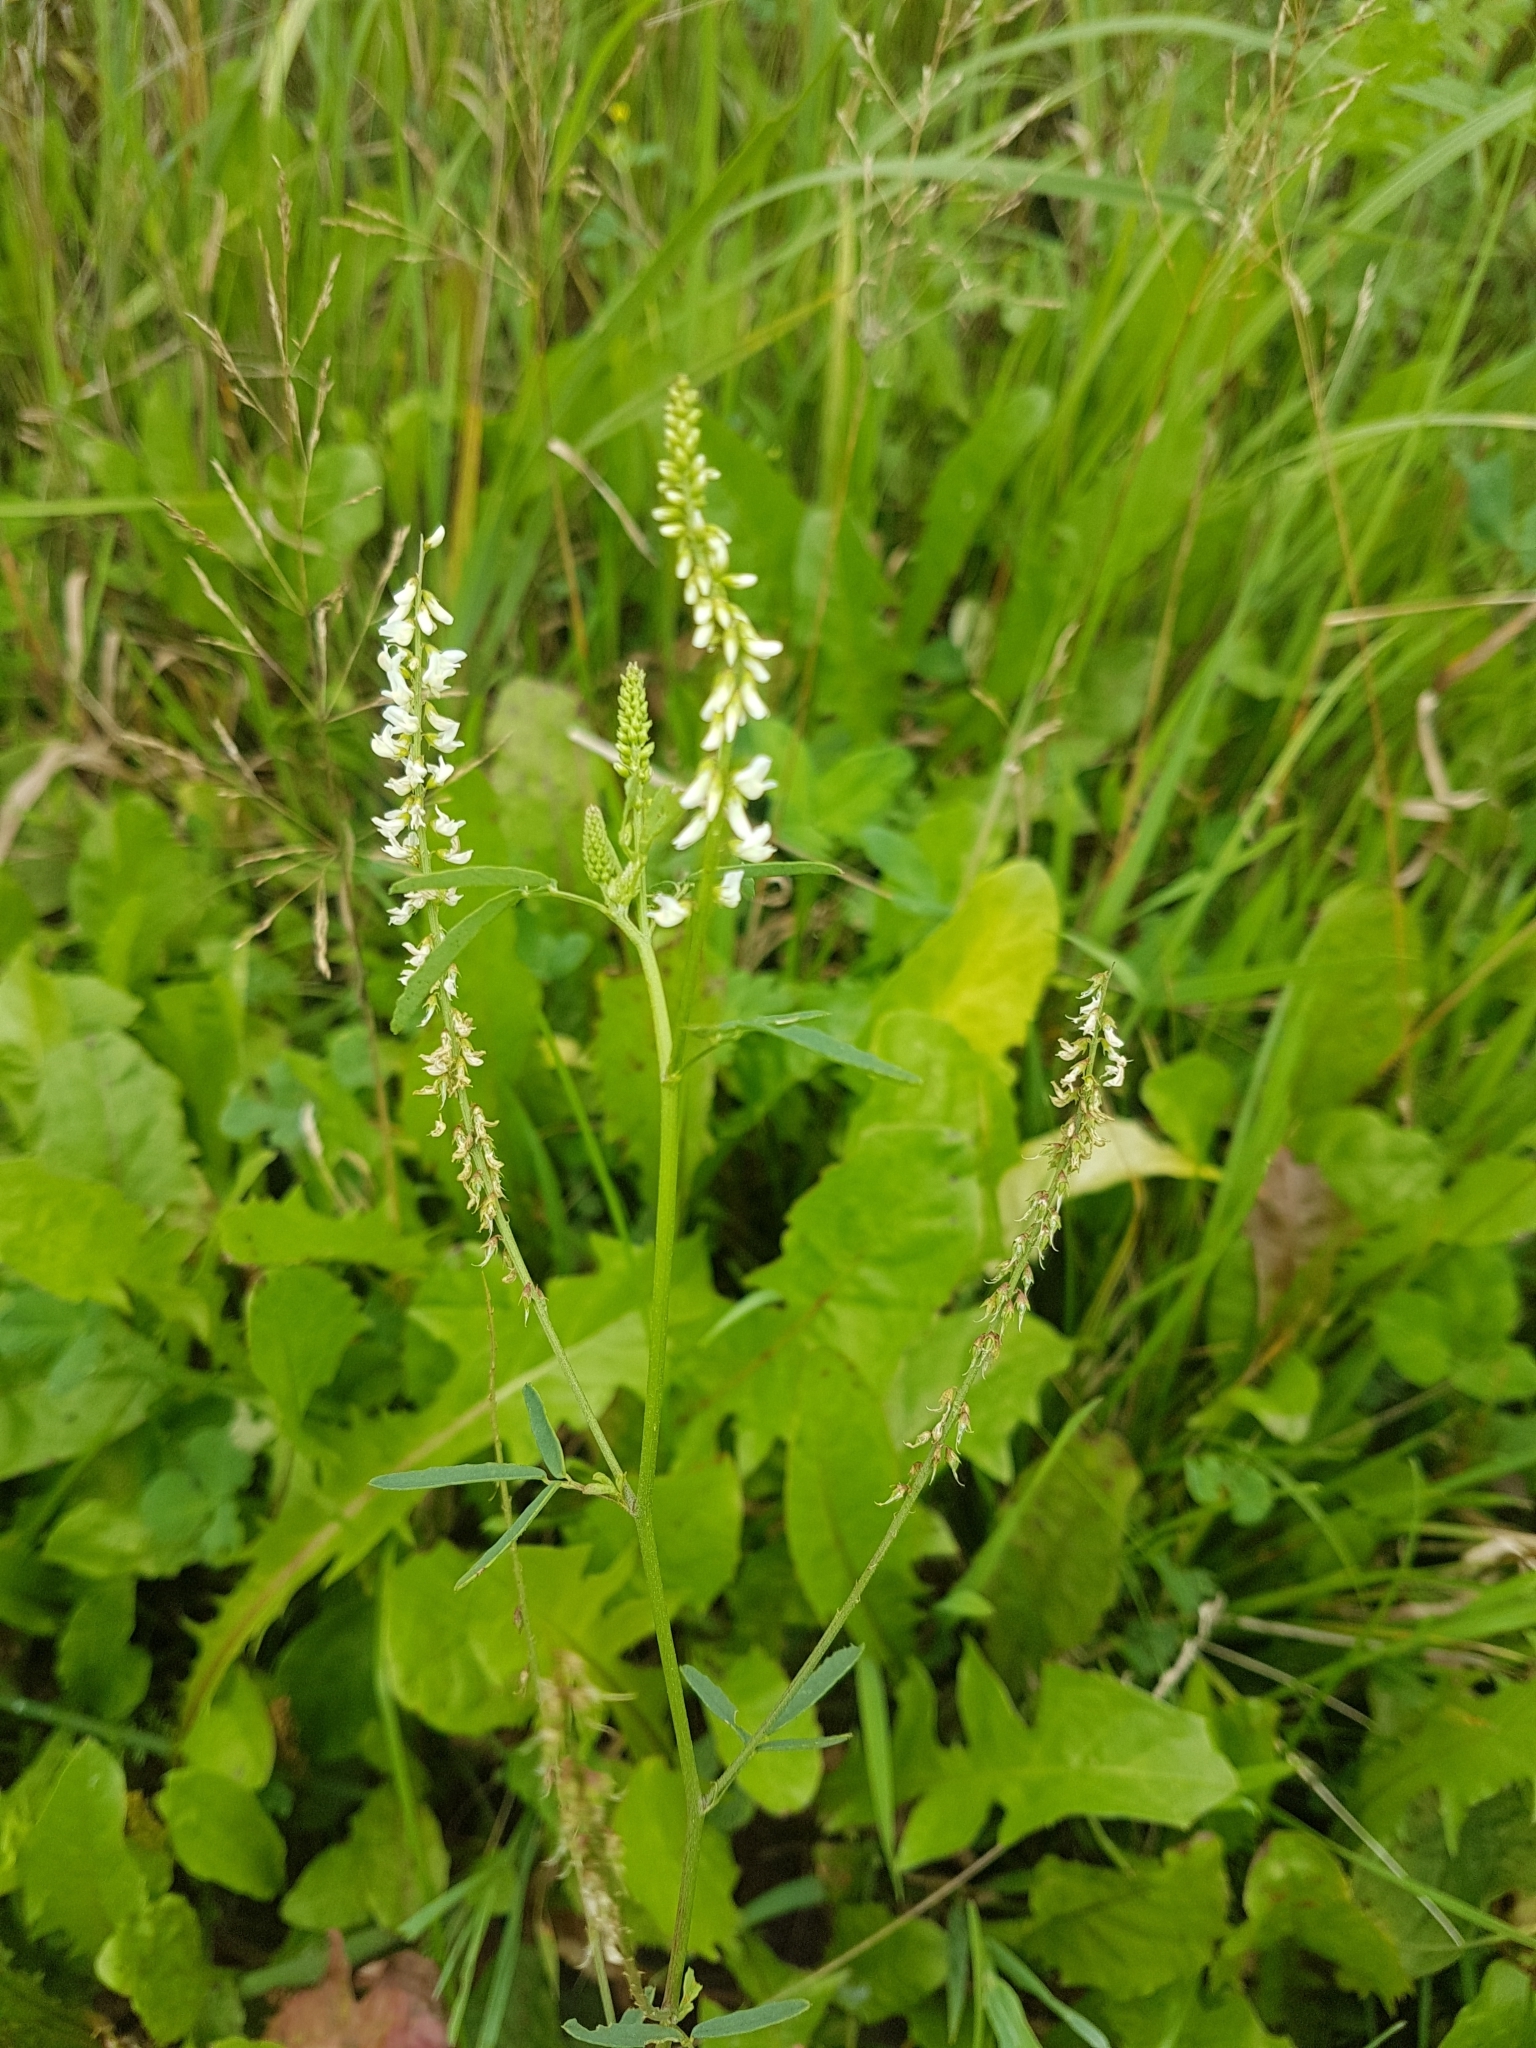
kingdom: Plantae
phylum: Tracheophyta
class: Magnoliopsida
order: Fabales
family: Fabaceae
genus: Melilotus
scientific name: Melilotus albus
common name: White melilot
